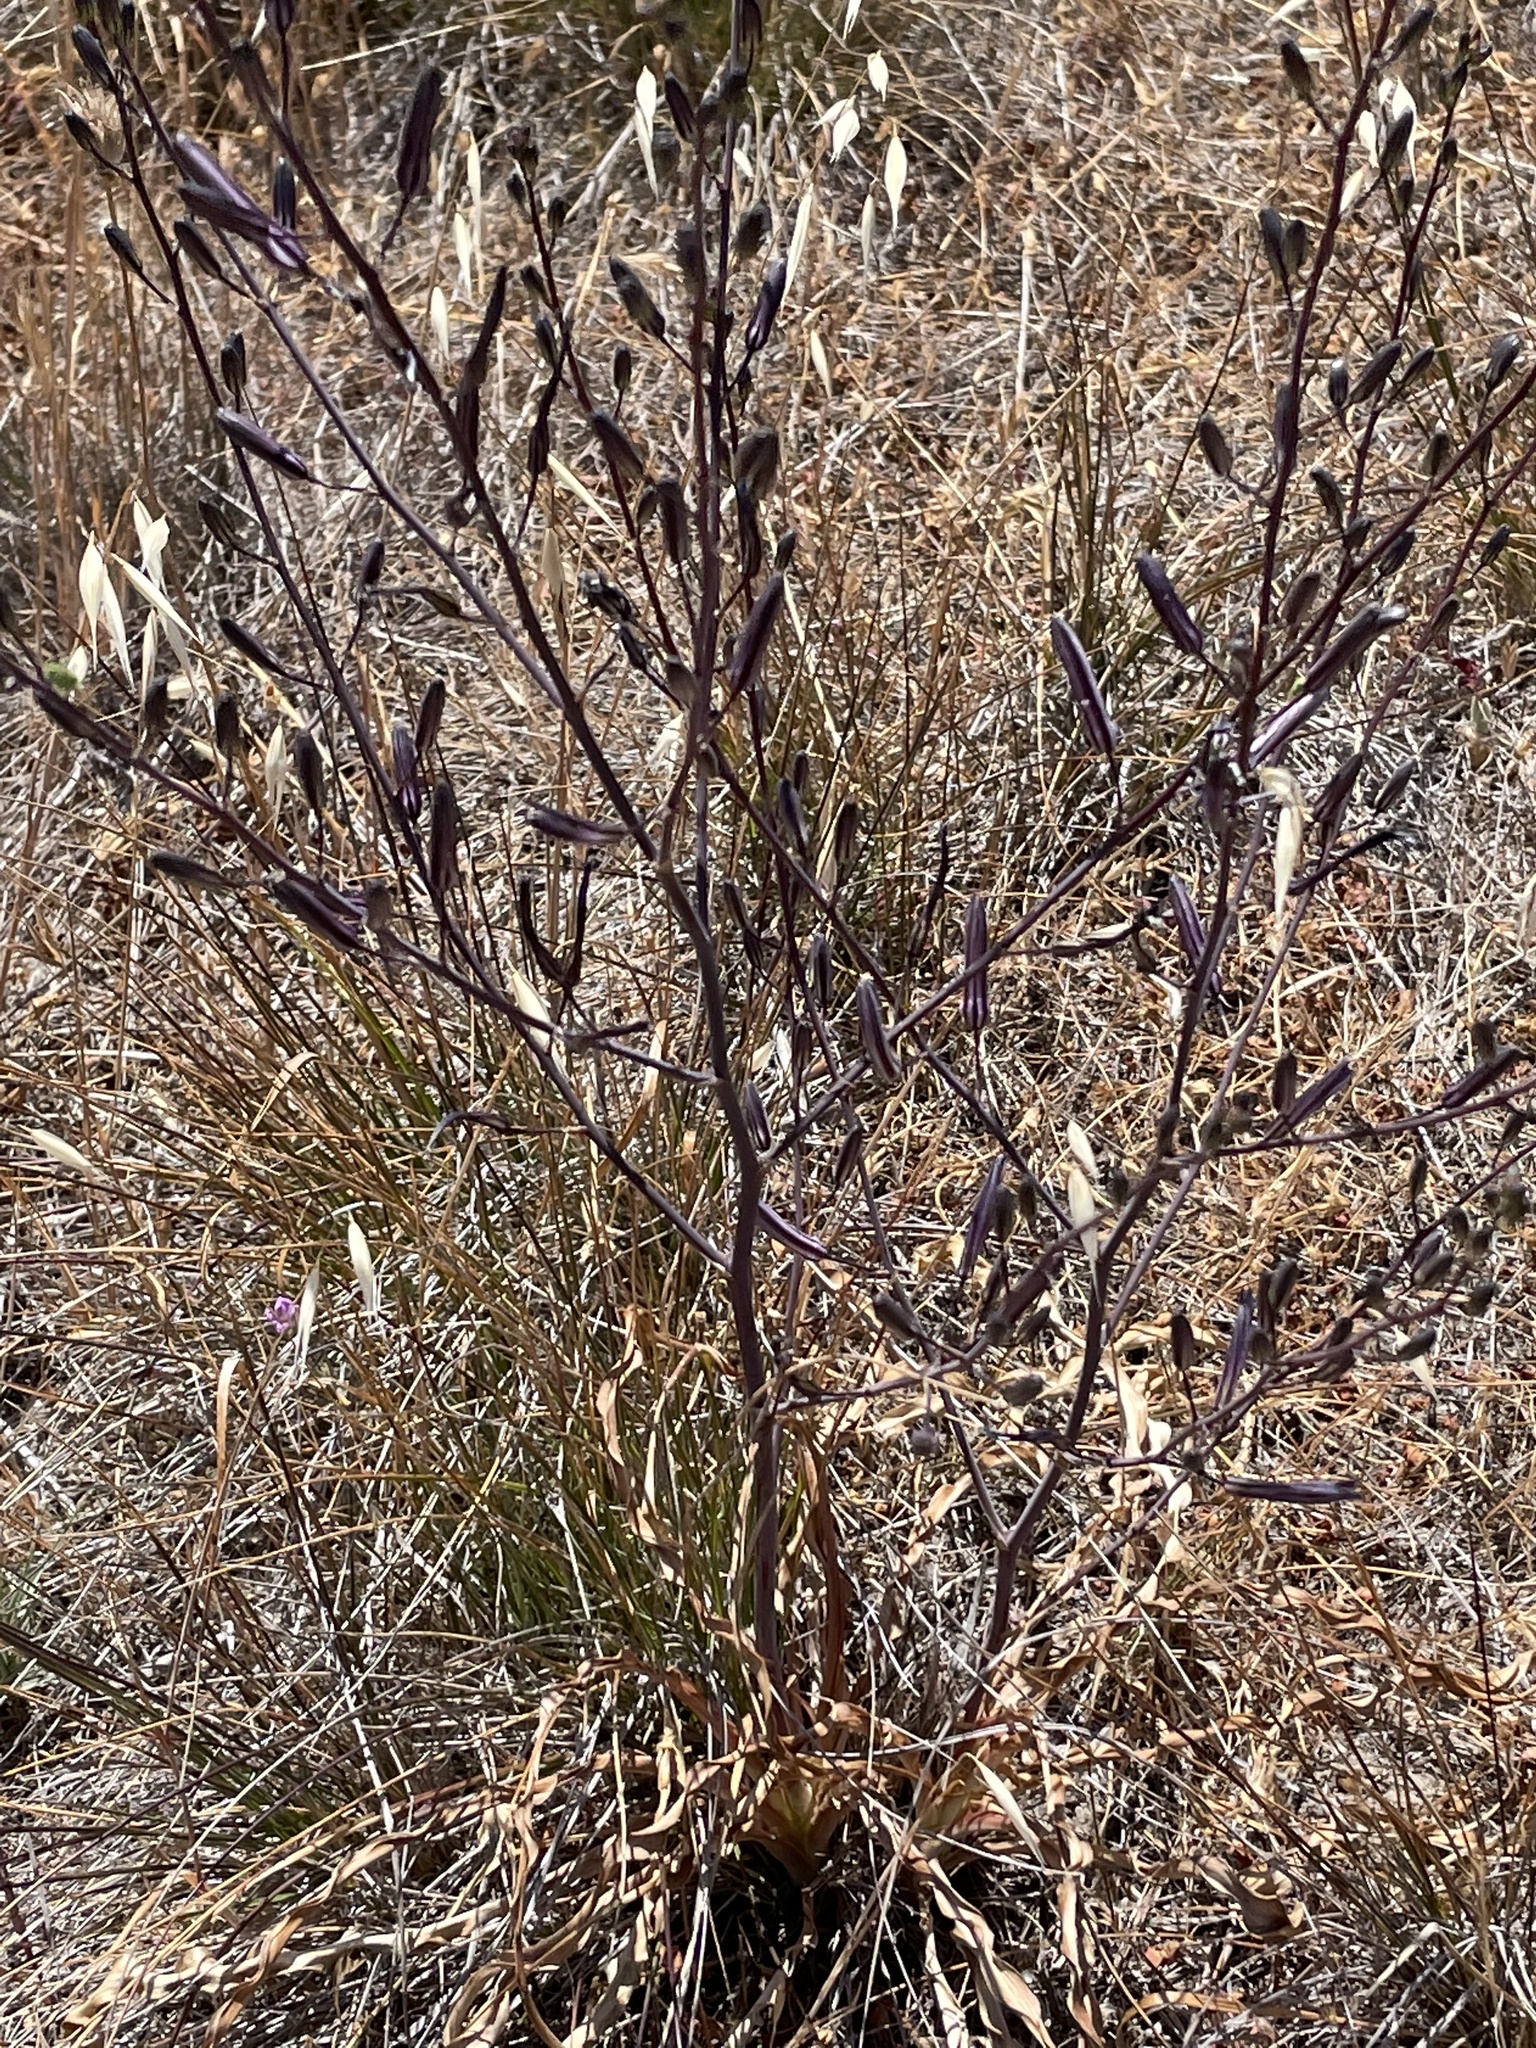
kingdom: Plantae
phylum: Tracheophyta
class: Liliopsida
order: Asparagales
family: Asparagaceae
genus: Chlorogalum
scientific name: Chlorogalum pomeridianum
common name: Amole
